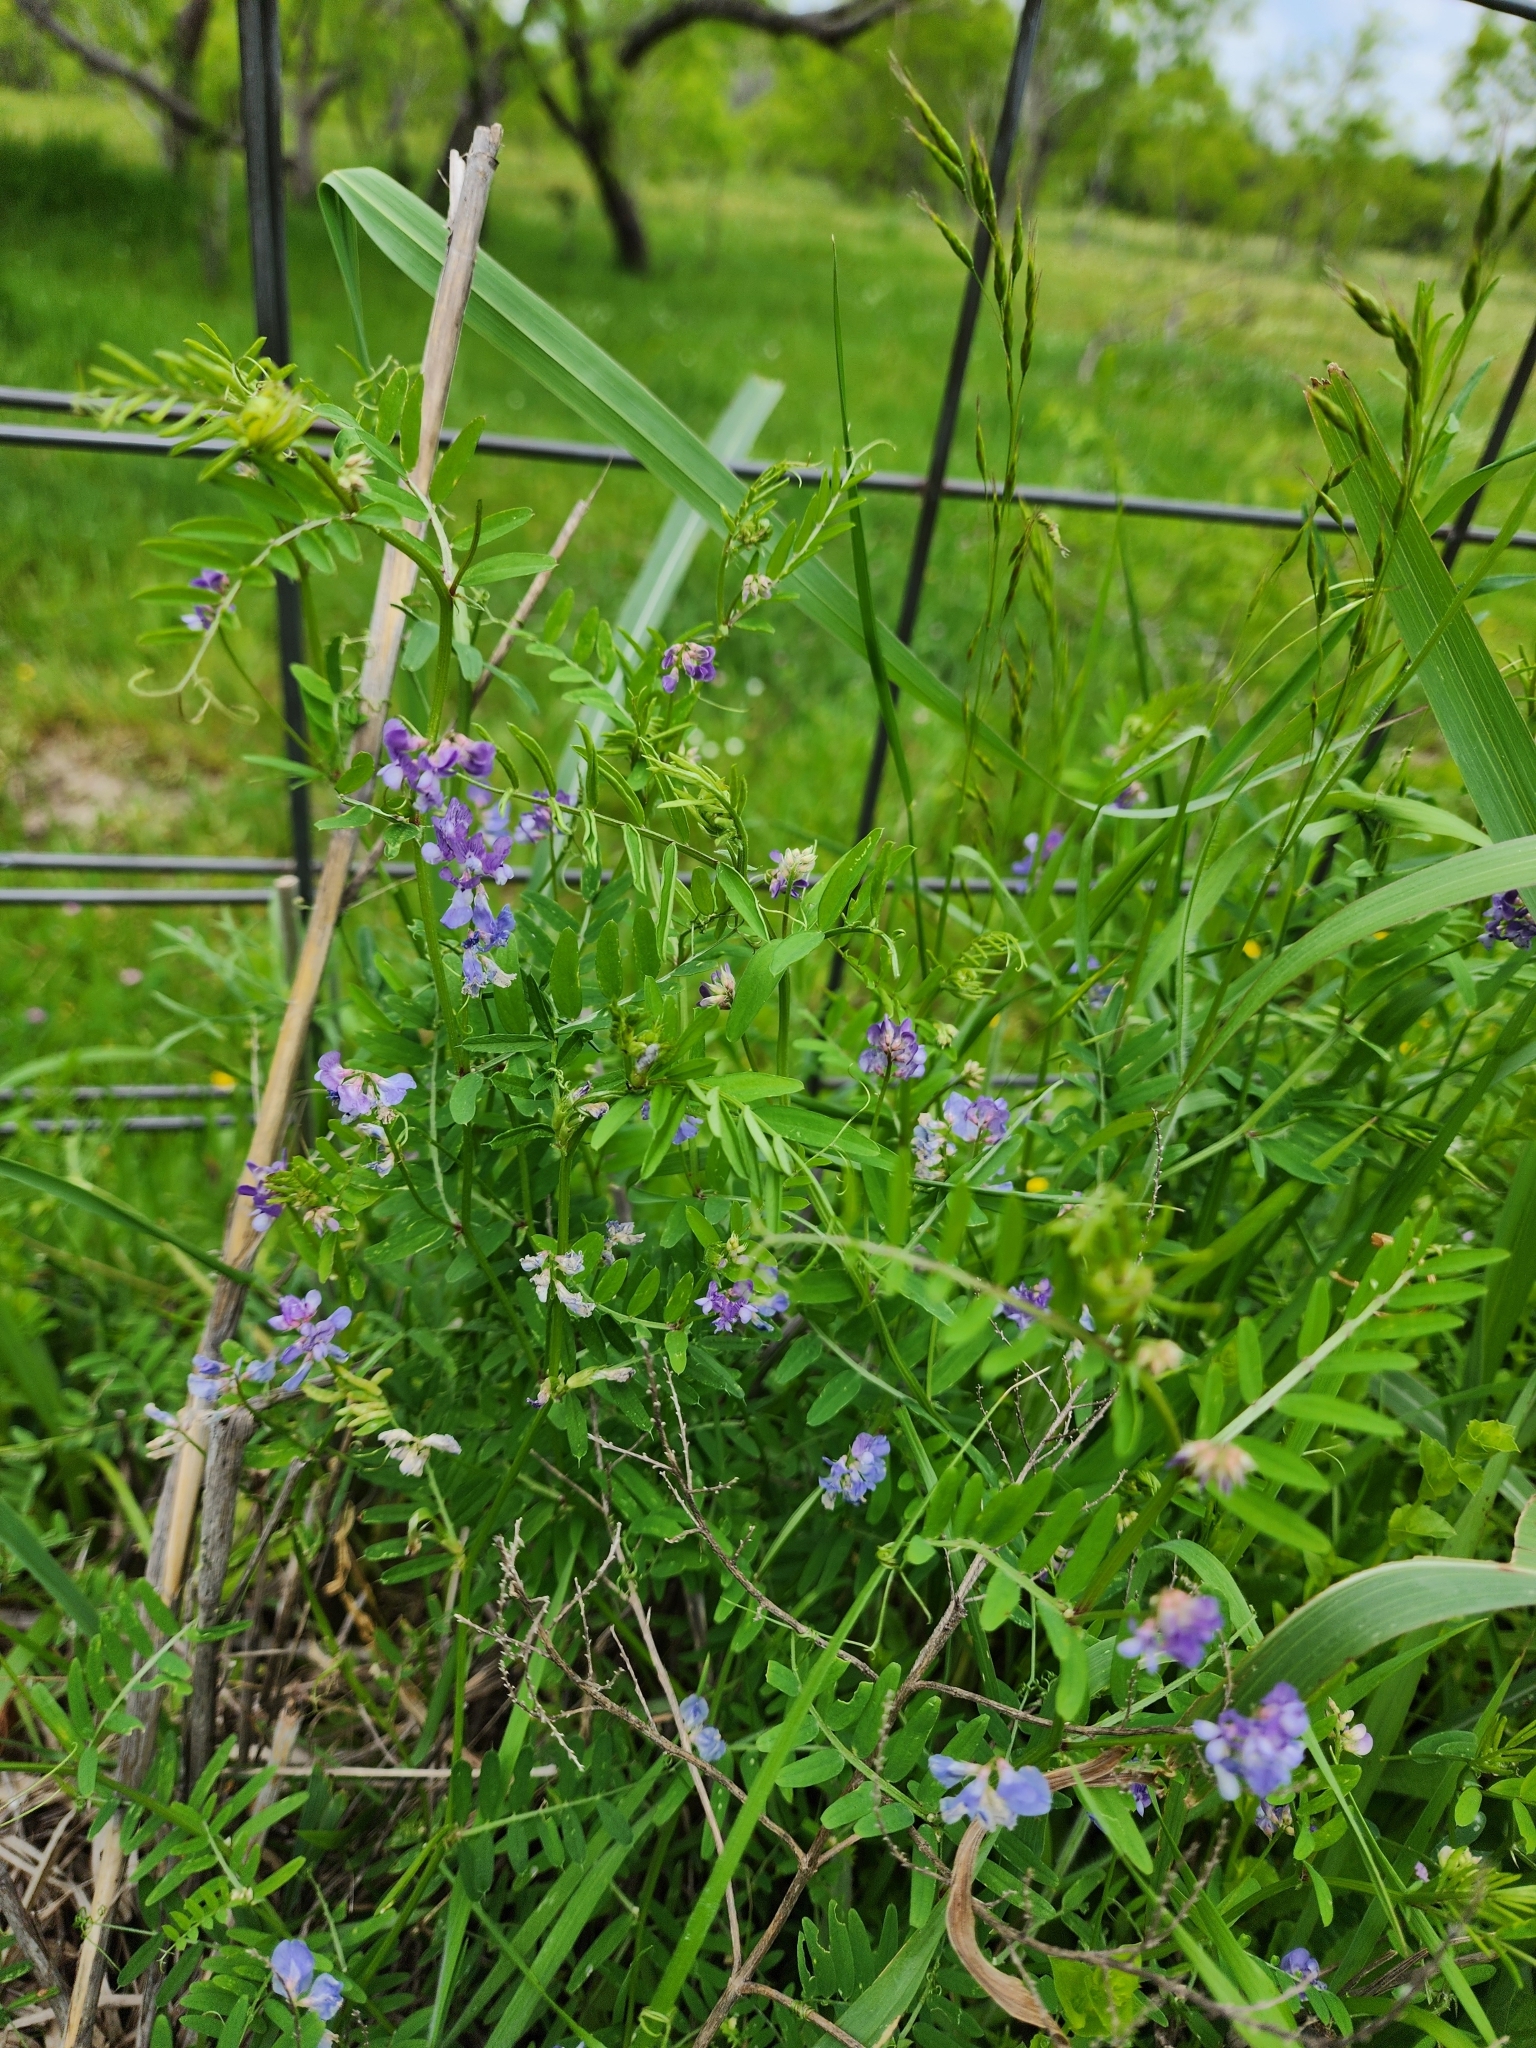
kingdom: Plantae
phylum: Tracheophyta
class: Magnoliopsida
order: Fabales
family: Fabaceae
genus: Vicia
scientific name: Vicia ludoviciana
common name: Louisiana vetch
